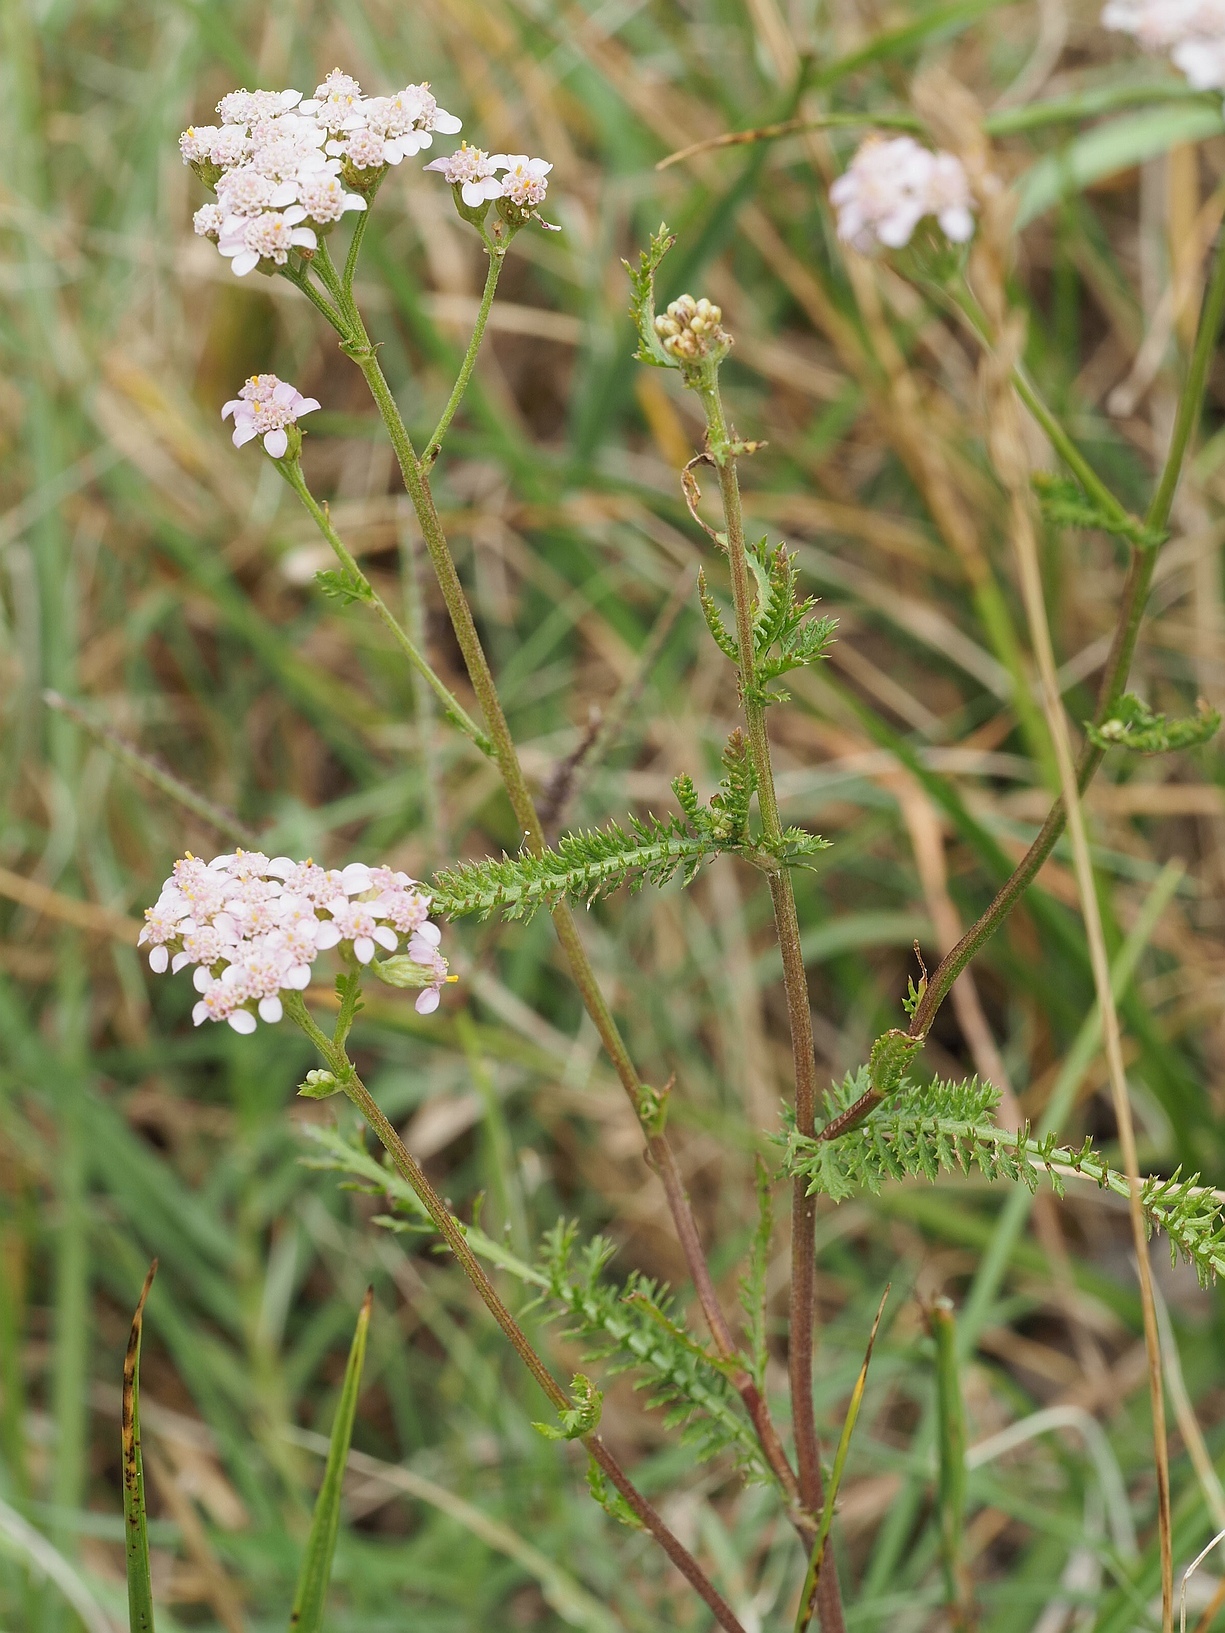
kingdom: Plantae
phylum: Tracheophyta
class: Magnoliopsida
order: Asterales
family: Asteraceae
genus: Achillea
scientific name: Achillea
